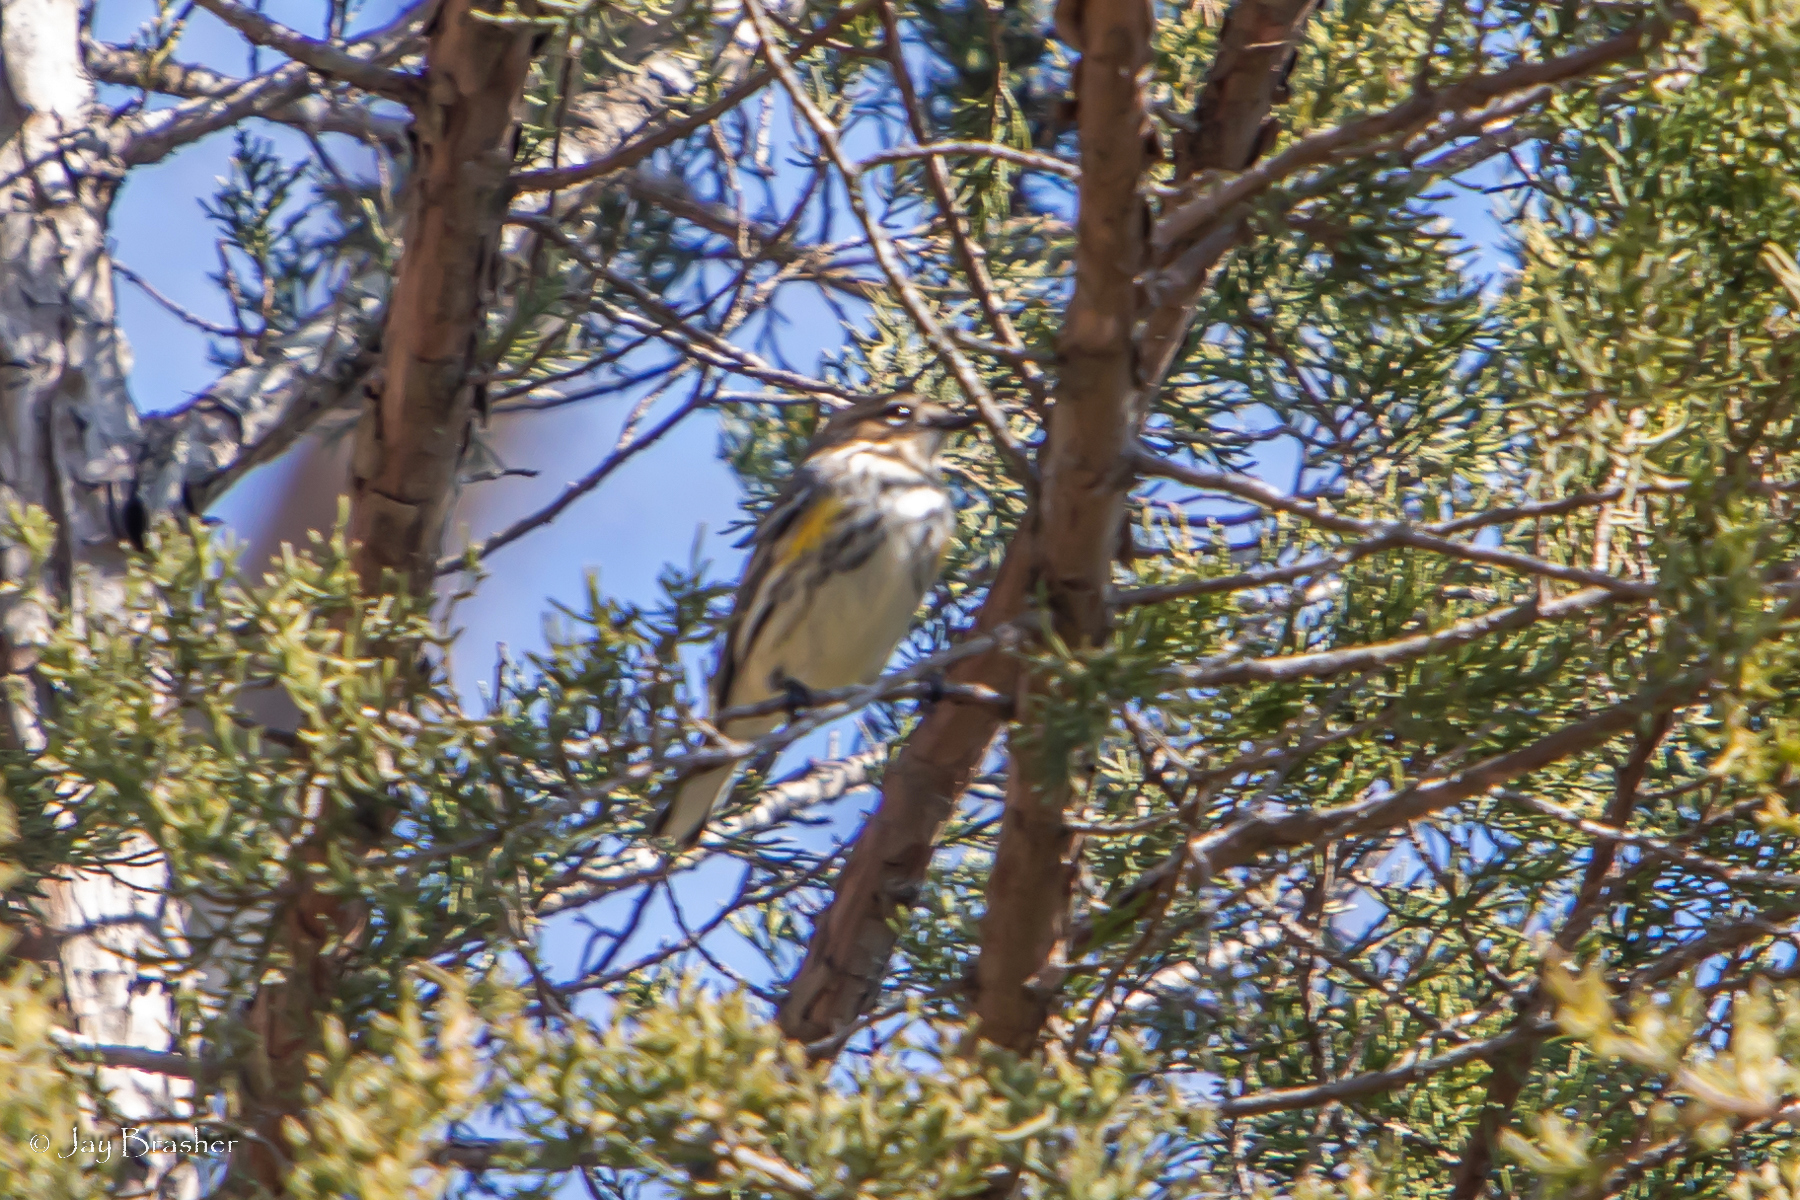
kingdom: Animalia
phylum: Chordata
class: Aves
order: Passeriformes
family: Parulidae
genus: Setophaga
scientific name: Setophaga coronata
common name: Myrtle warbler
